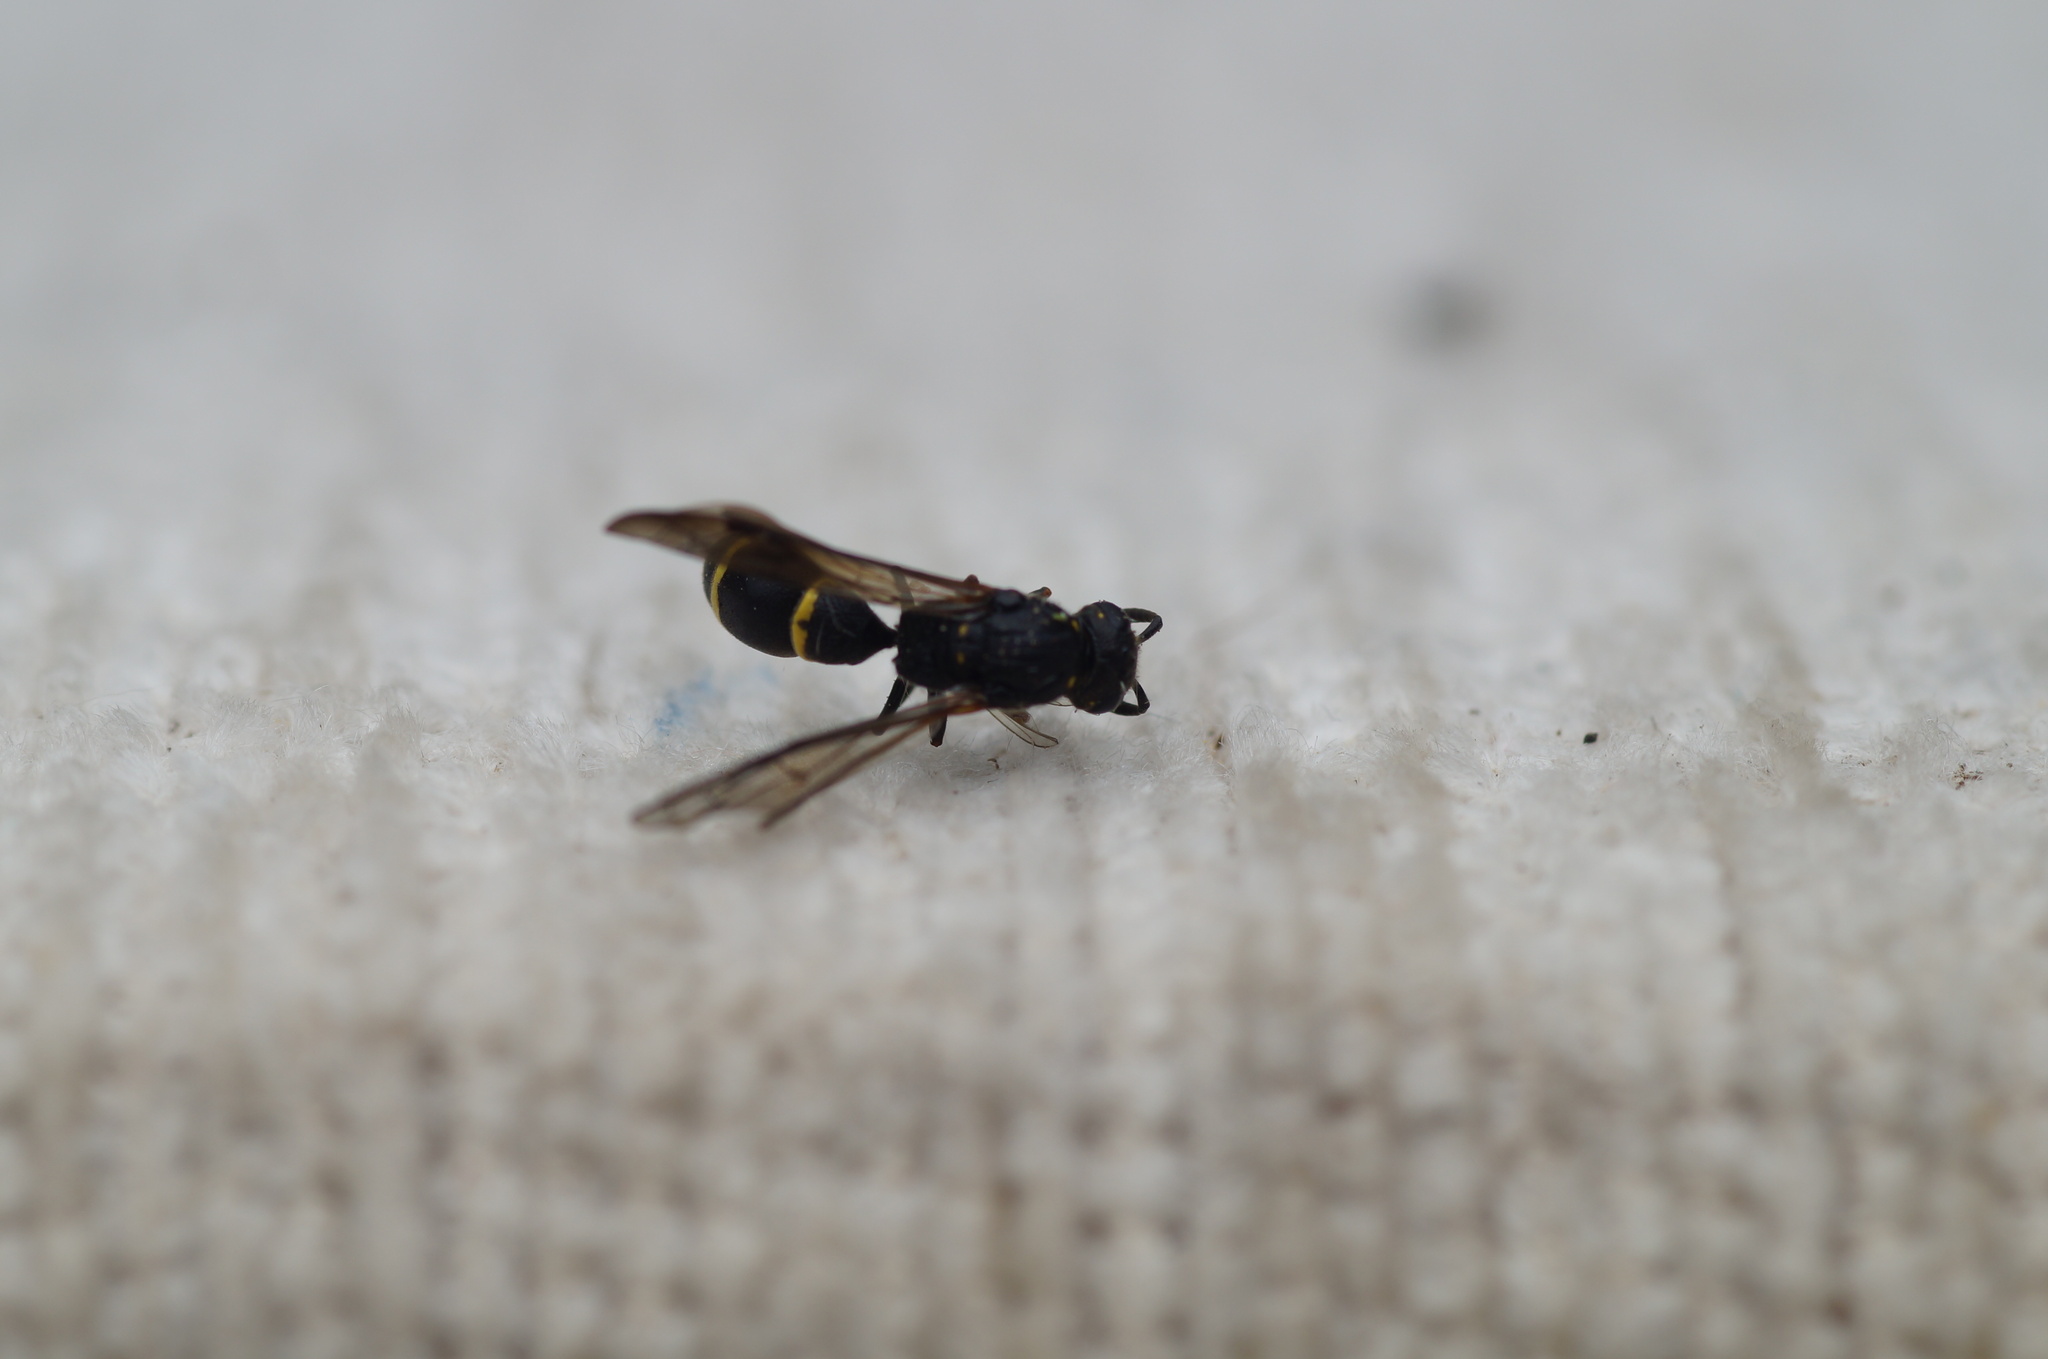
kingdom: Animalia
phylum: Arthropoda
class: Insecta
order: Hymenoptera
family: Eumenidae
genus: Symmorphus
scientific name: Symmorphus
